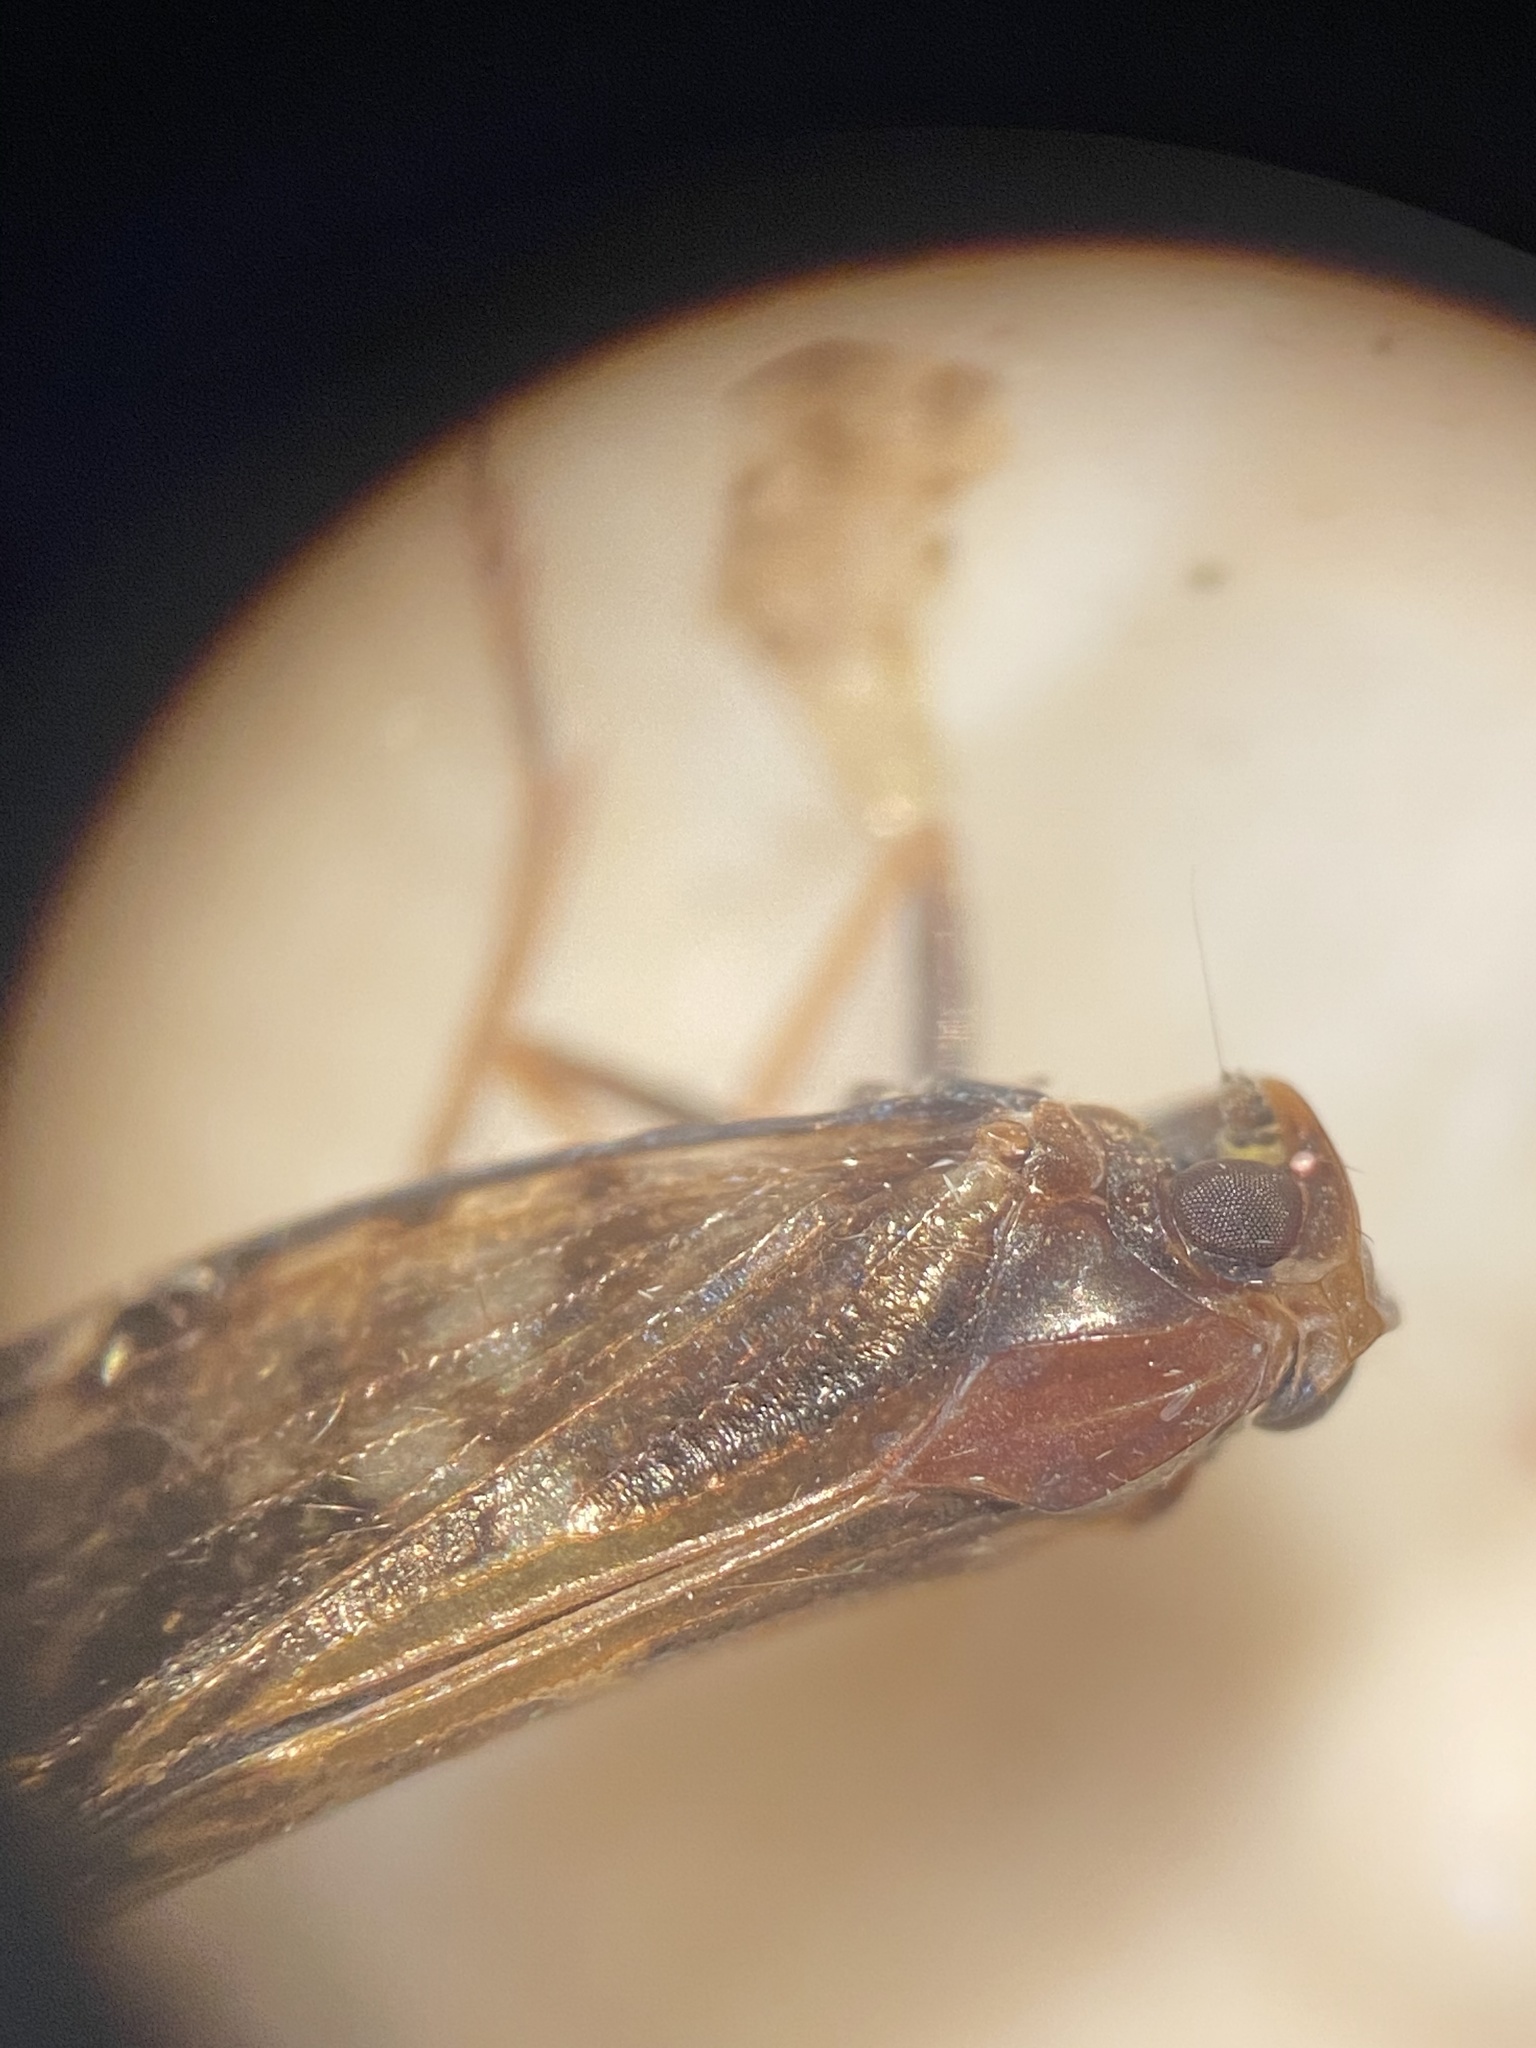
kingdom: Animalia
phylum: Arthropoda
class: Insecta
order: Hemiptera
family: Cixiidae
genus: Pintalia
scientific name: Pintalia vibex
